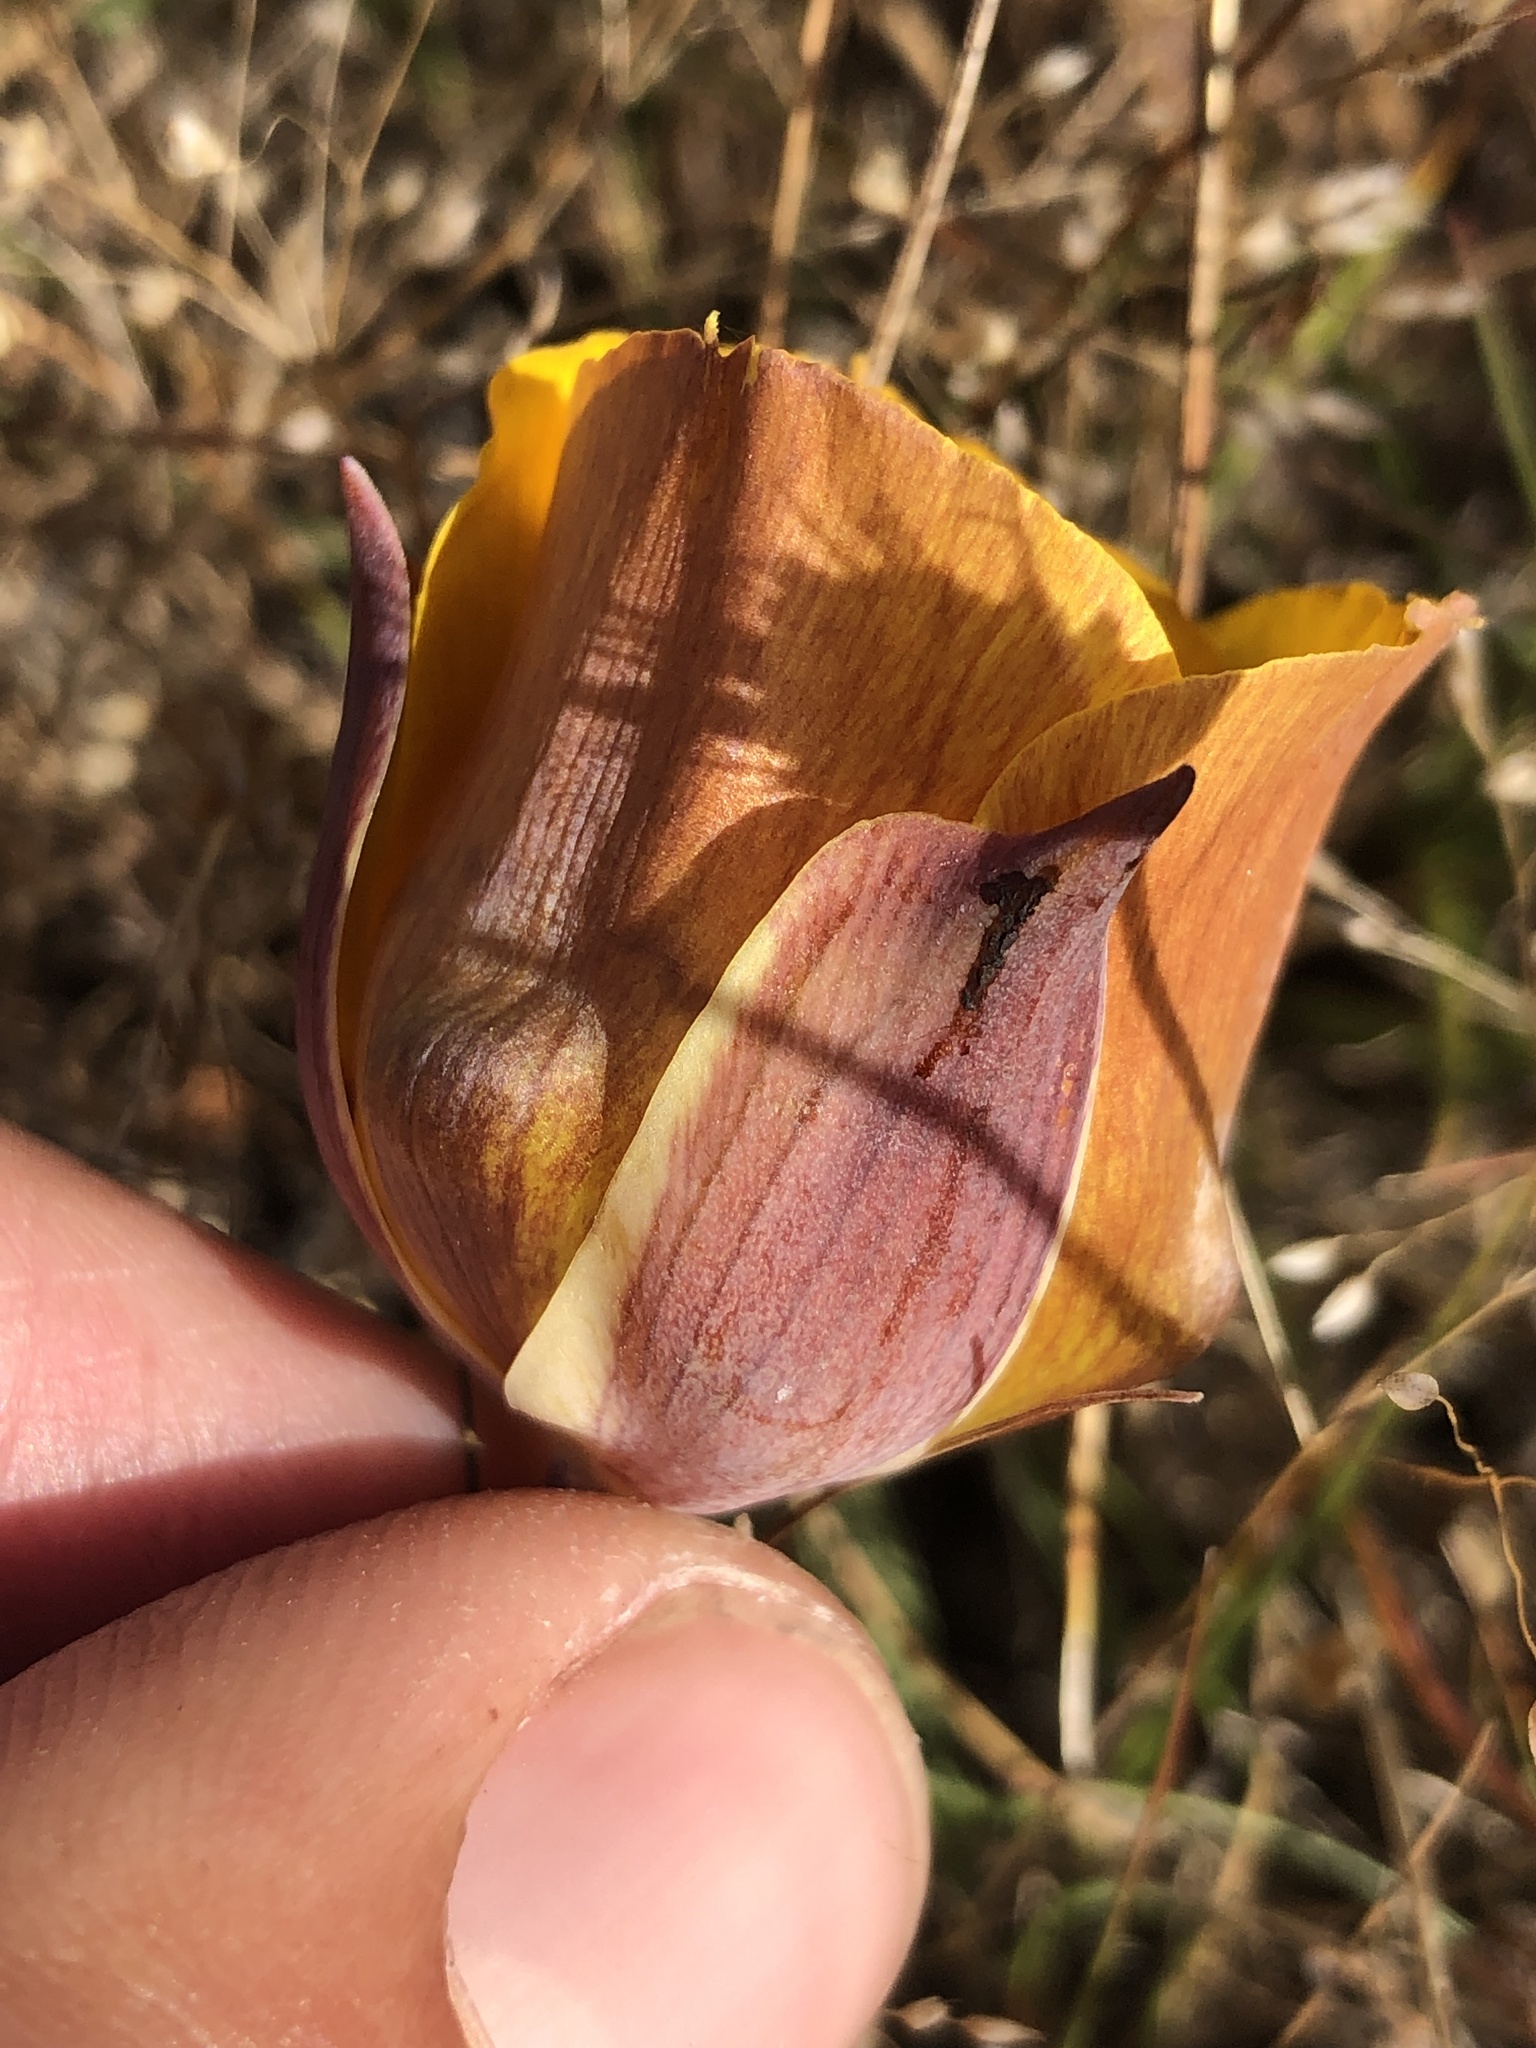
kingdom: Plantae
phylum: Tracheophyta
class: Liliopsida
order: Liliales
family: Liliaceae
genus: Calochortus
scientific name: Calochortus clavatus
